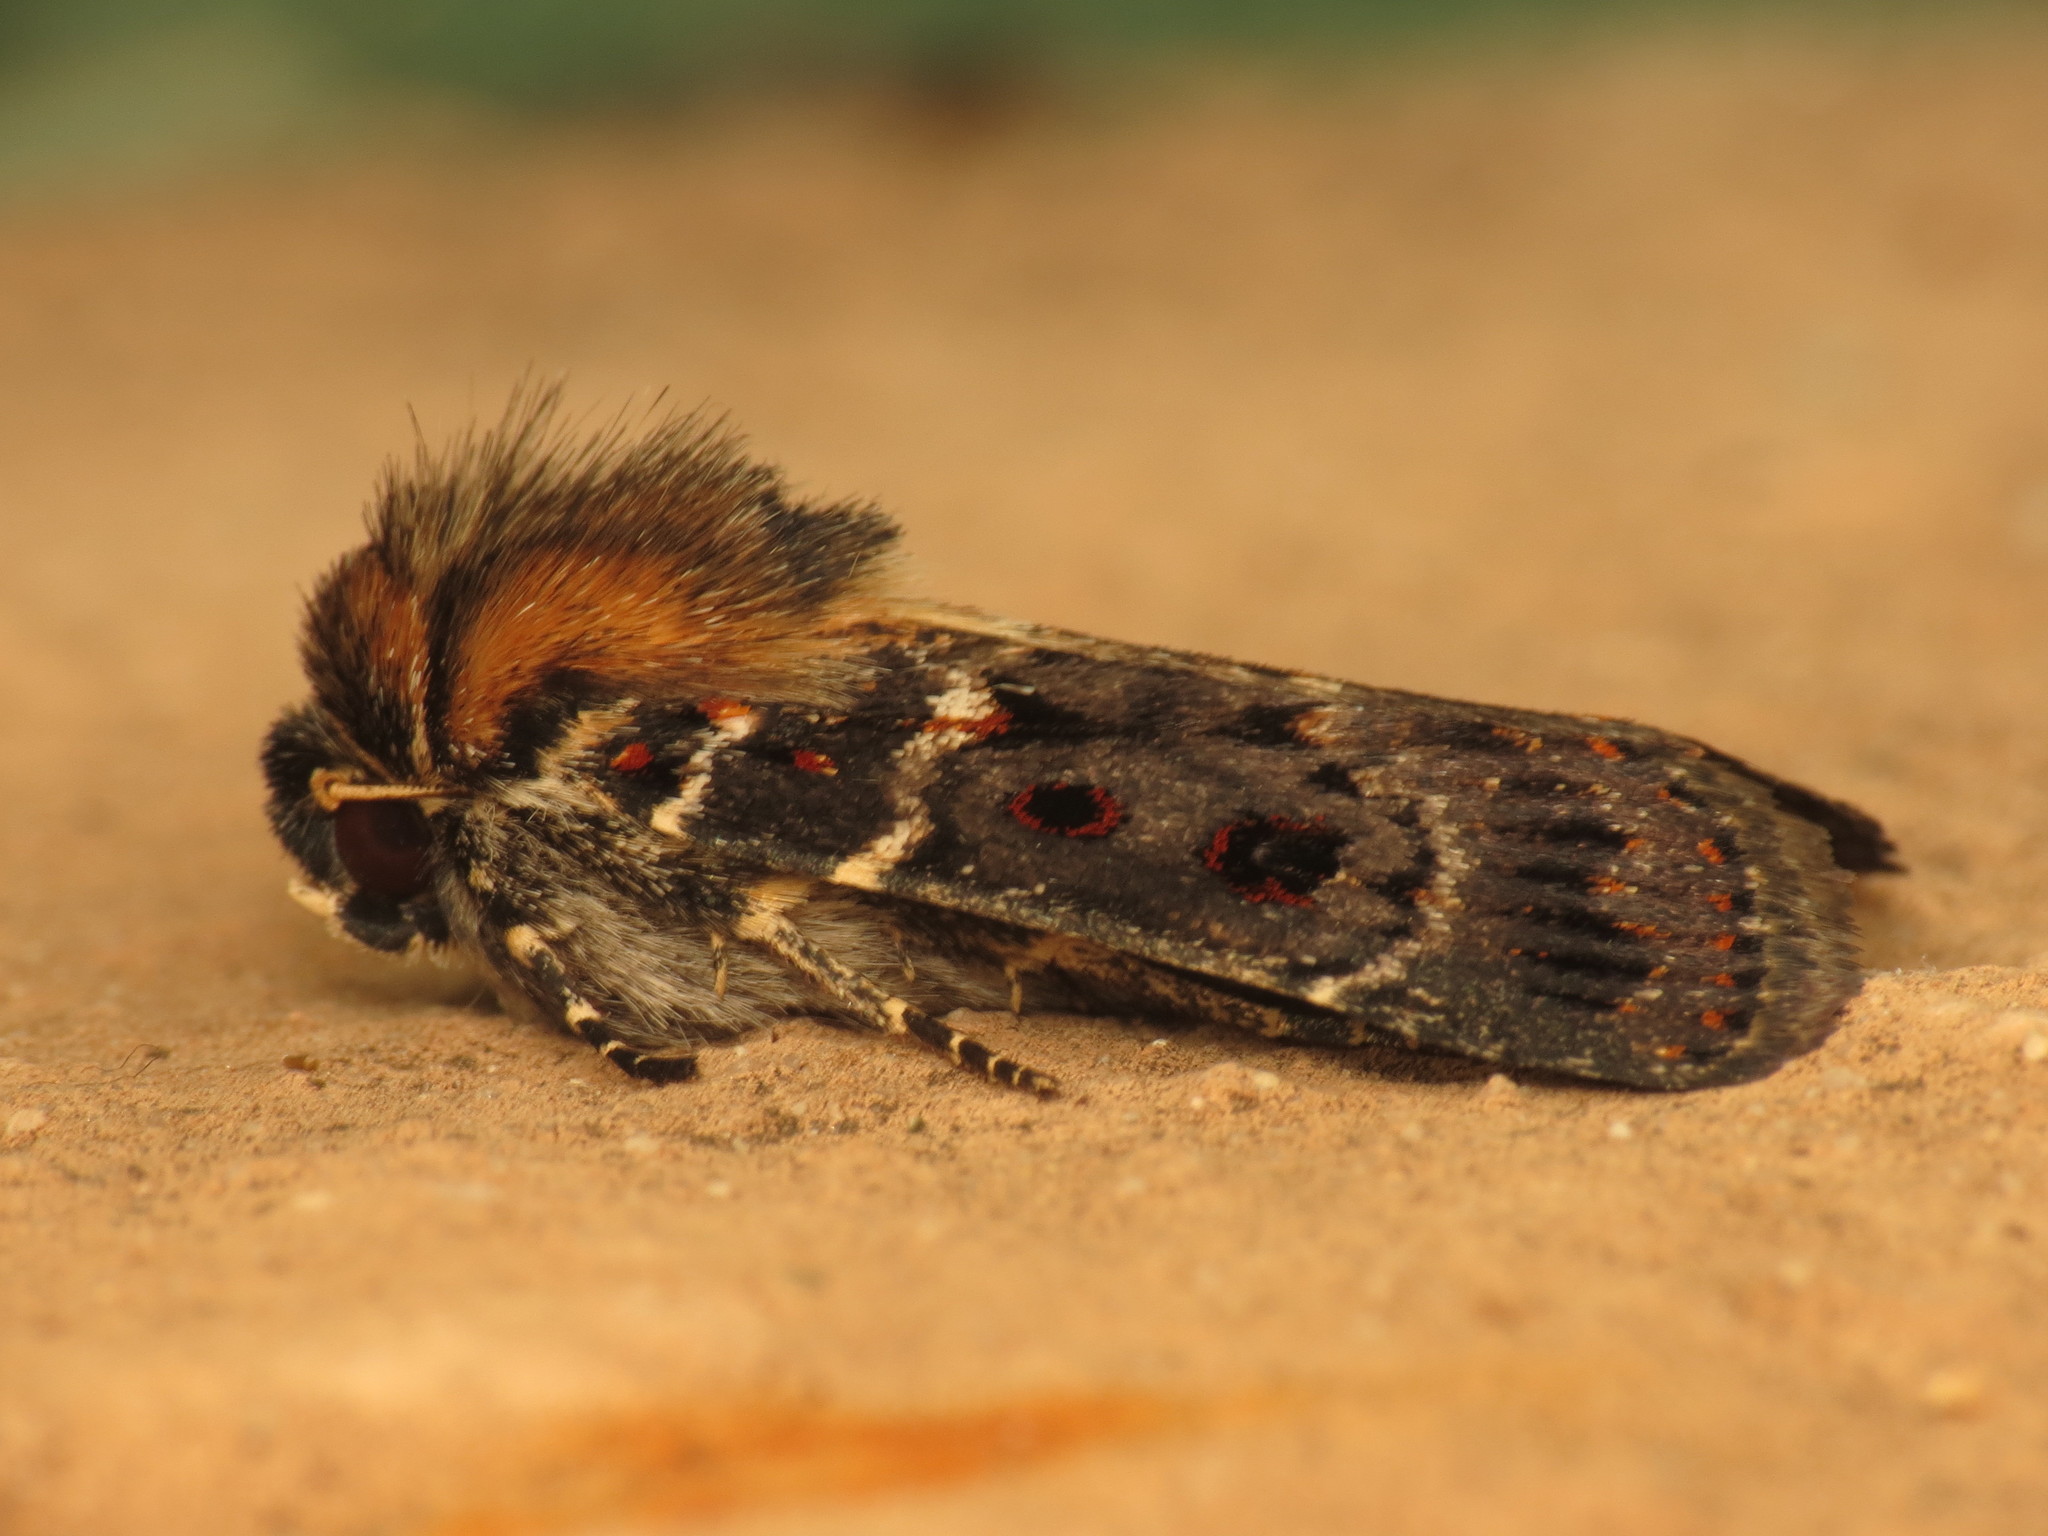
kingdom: Animalia
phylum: Arthropoda
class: Insecta
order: Lepidoptera
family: Noctuidae
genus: Proteuxoa
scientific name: Proteuxoa sanguinipuncta
